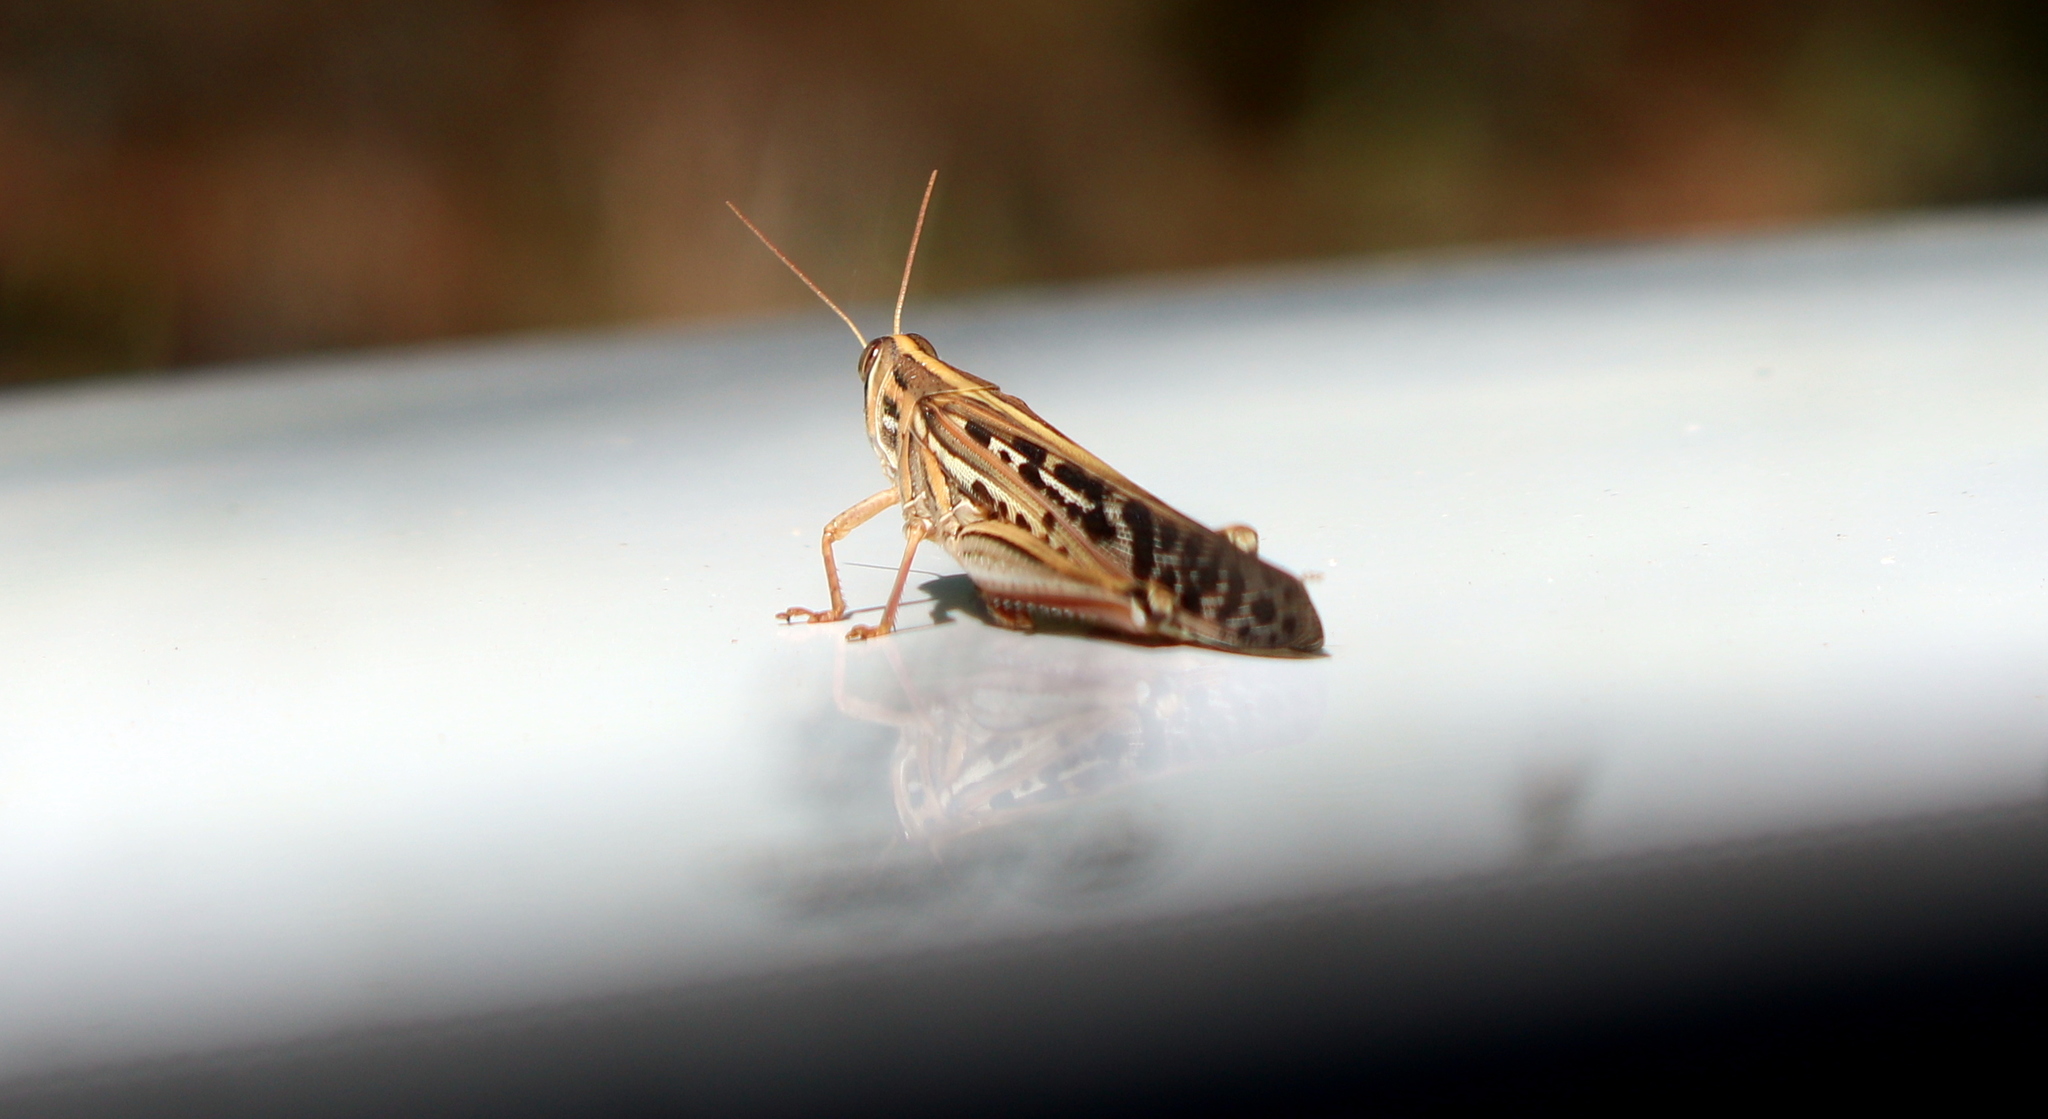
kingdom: Animalia
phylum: Arthropoda
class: Insecta
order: Orthoptera
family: Acrididae
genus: Schistocerca
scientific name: Schistocerca americana
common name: American bird locust
